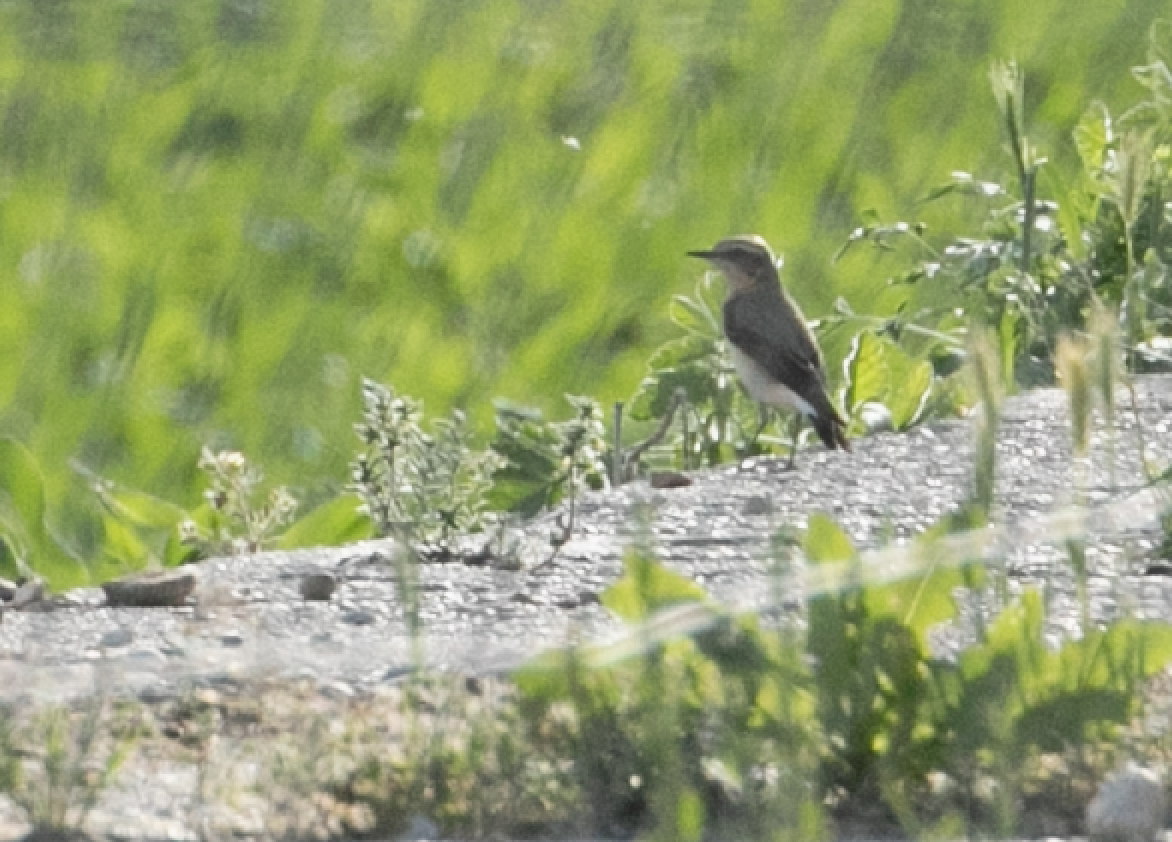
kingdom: Animalia
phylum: Chordata
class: Aves
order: Passeriformes
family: Muscicapidae
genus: Oenanthe
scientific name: Oenanthe oenanthe
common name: Northern wheatear
